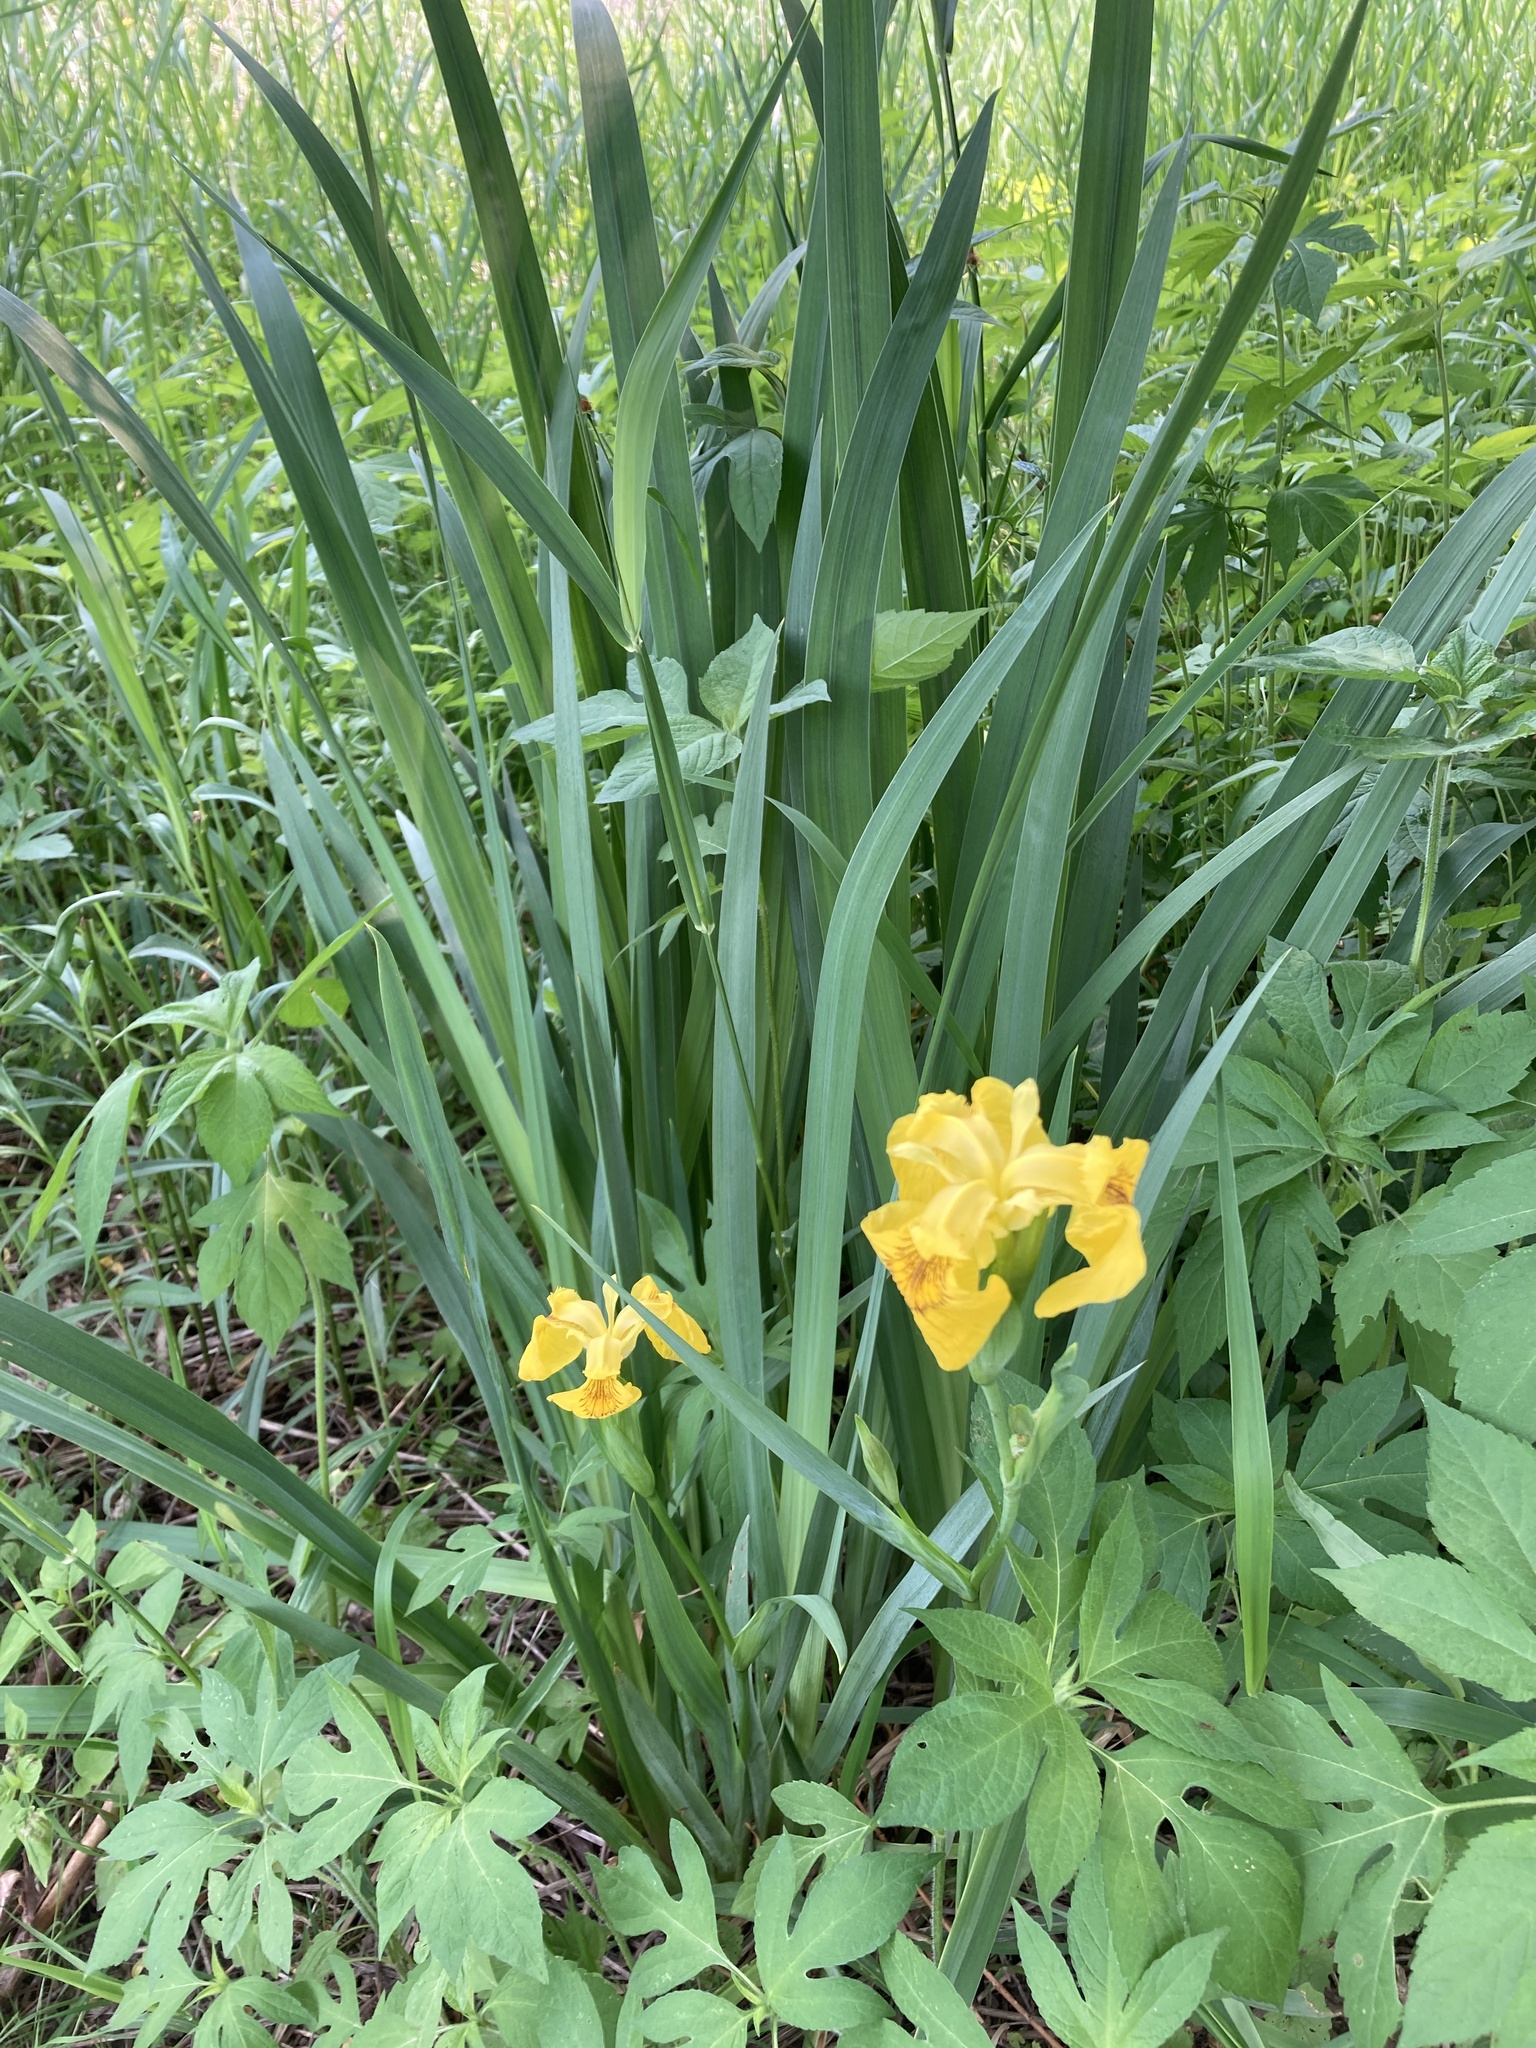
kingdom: Plantae
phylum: Tracheophyta
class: Liliopsida
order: Asparagales
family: Iridaceae
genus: Iris
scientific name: Iris pseudacorus
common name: Yellow flag
